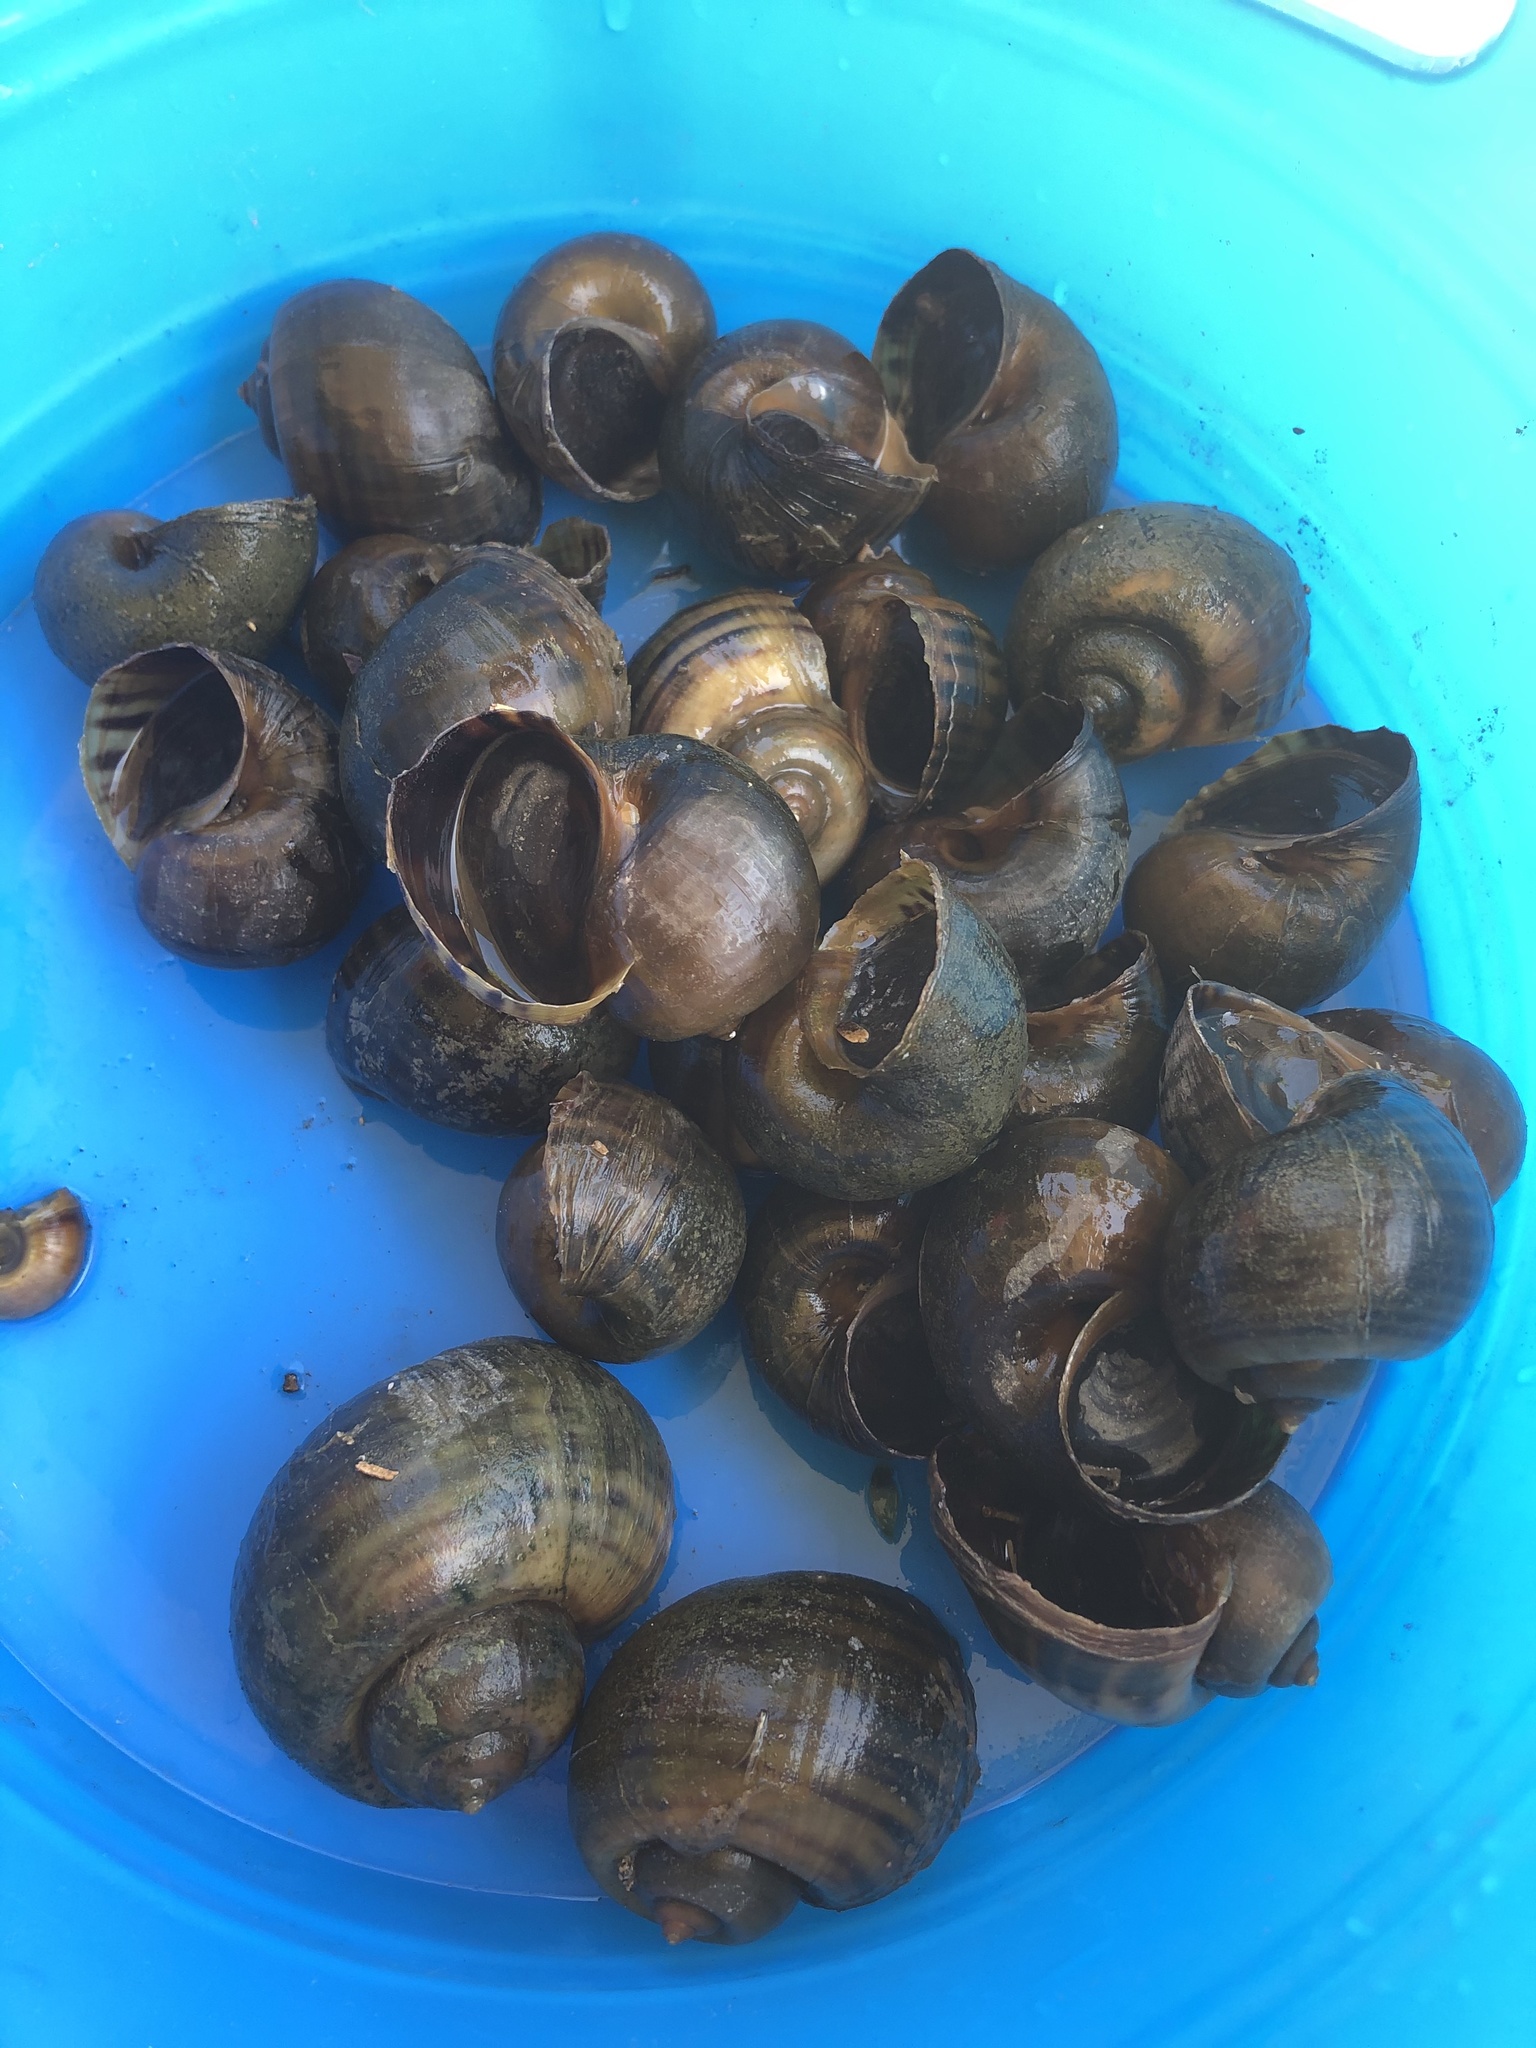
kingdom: Animalia
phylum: Mollusca
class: Gastropoda
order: Architaenioglossa
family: Ampullariidae
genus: Pomacea
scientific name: Pomacea canaliculata
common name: Channeled applesnail
